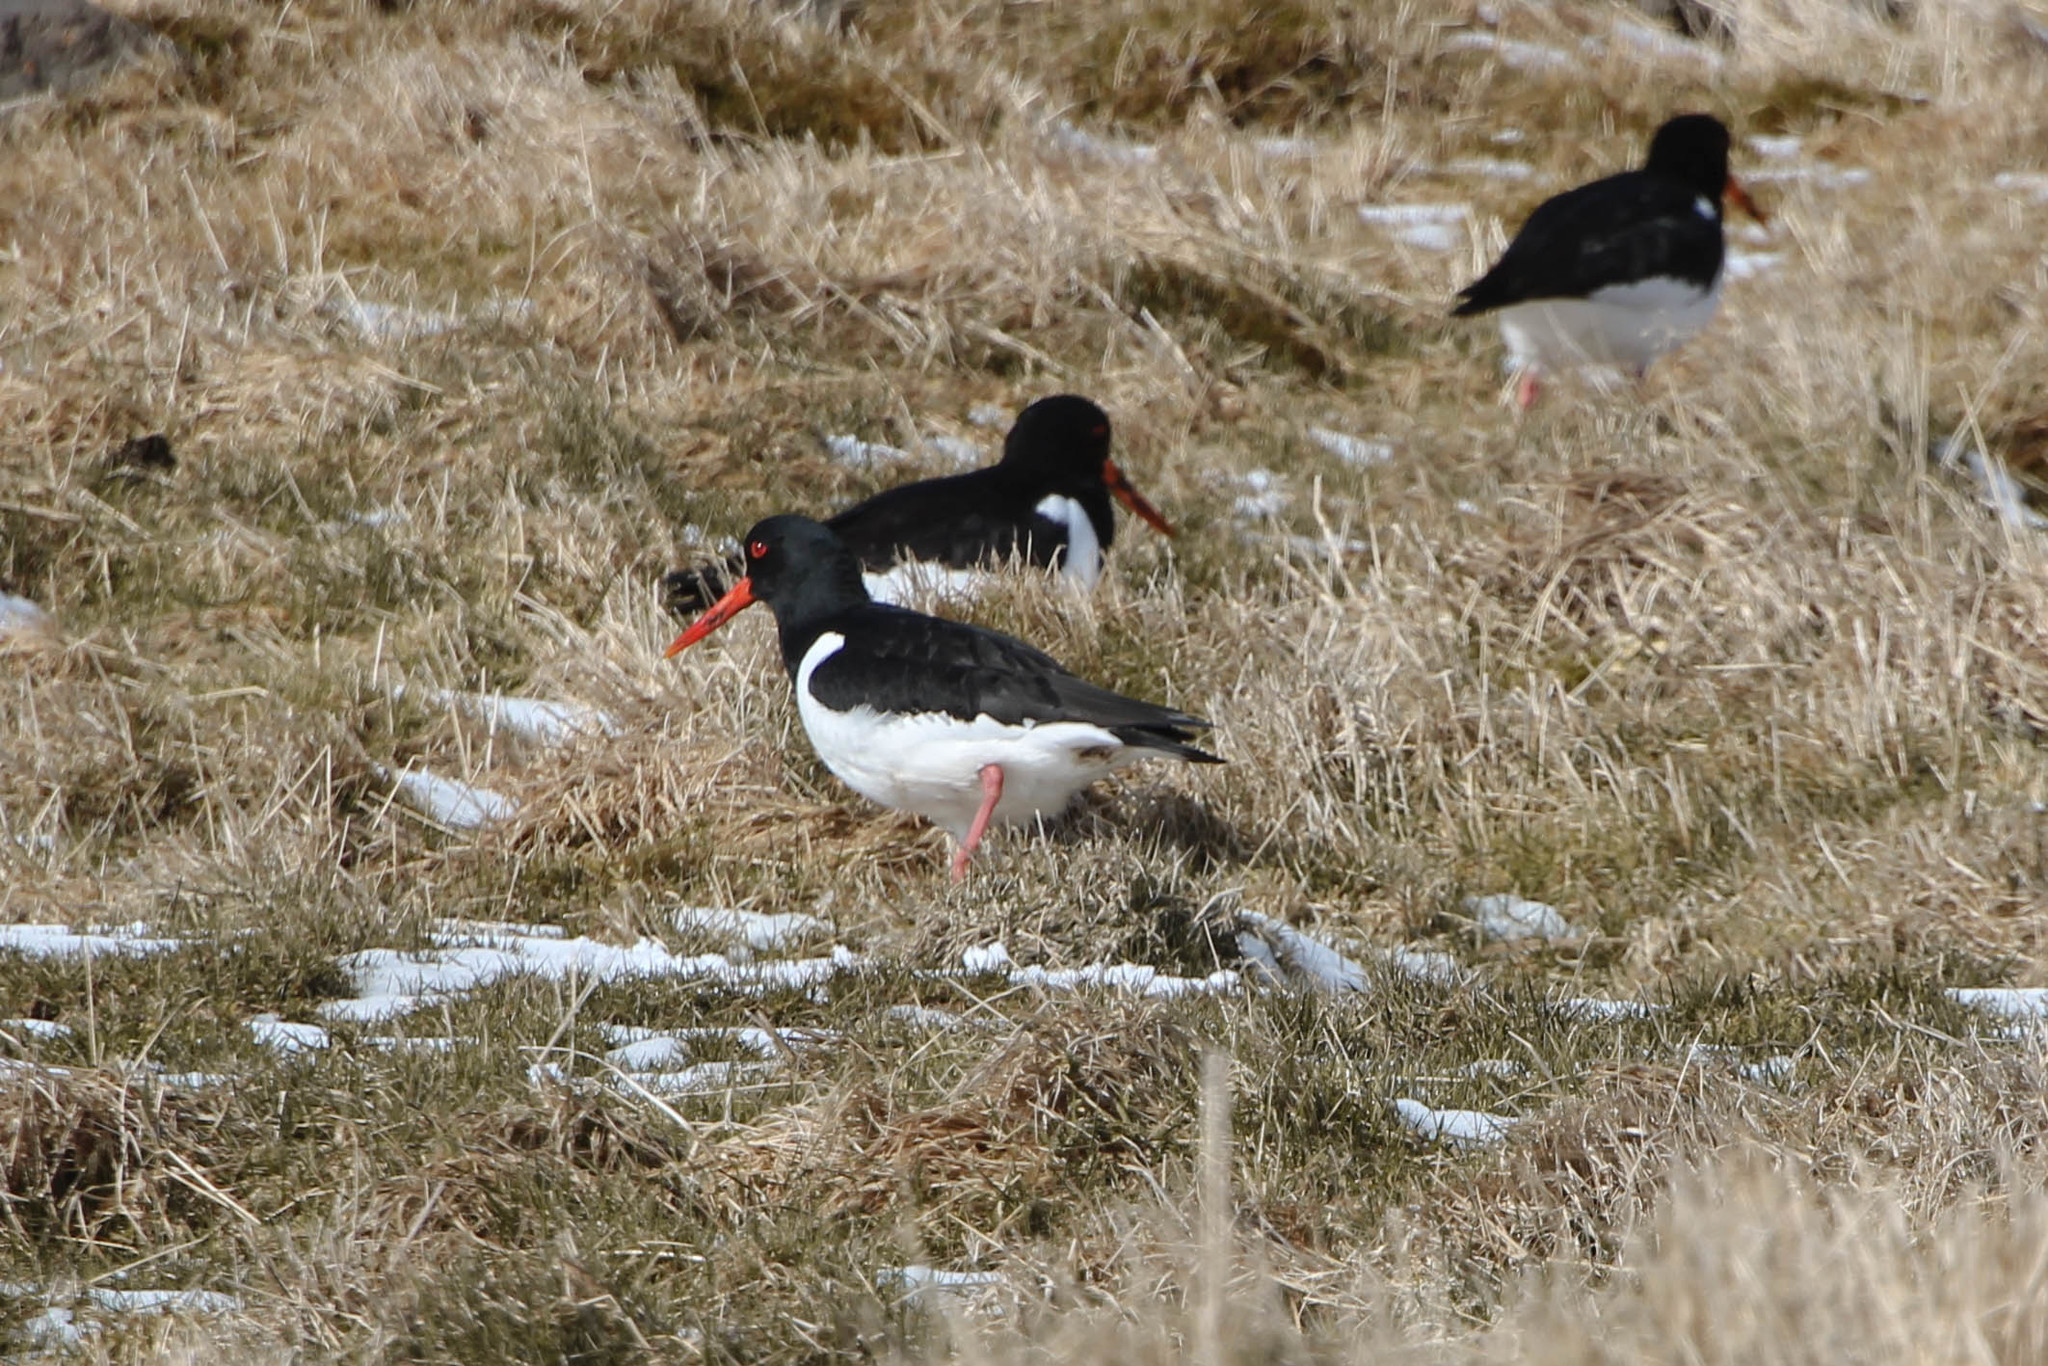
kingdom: Animalia
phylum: Chordata
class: Aves
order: Charadriiformes
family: Haematopodidae
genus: Haematopus
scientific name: Haematopus ostralegus
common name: Eurasian oystercatcher
